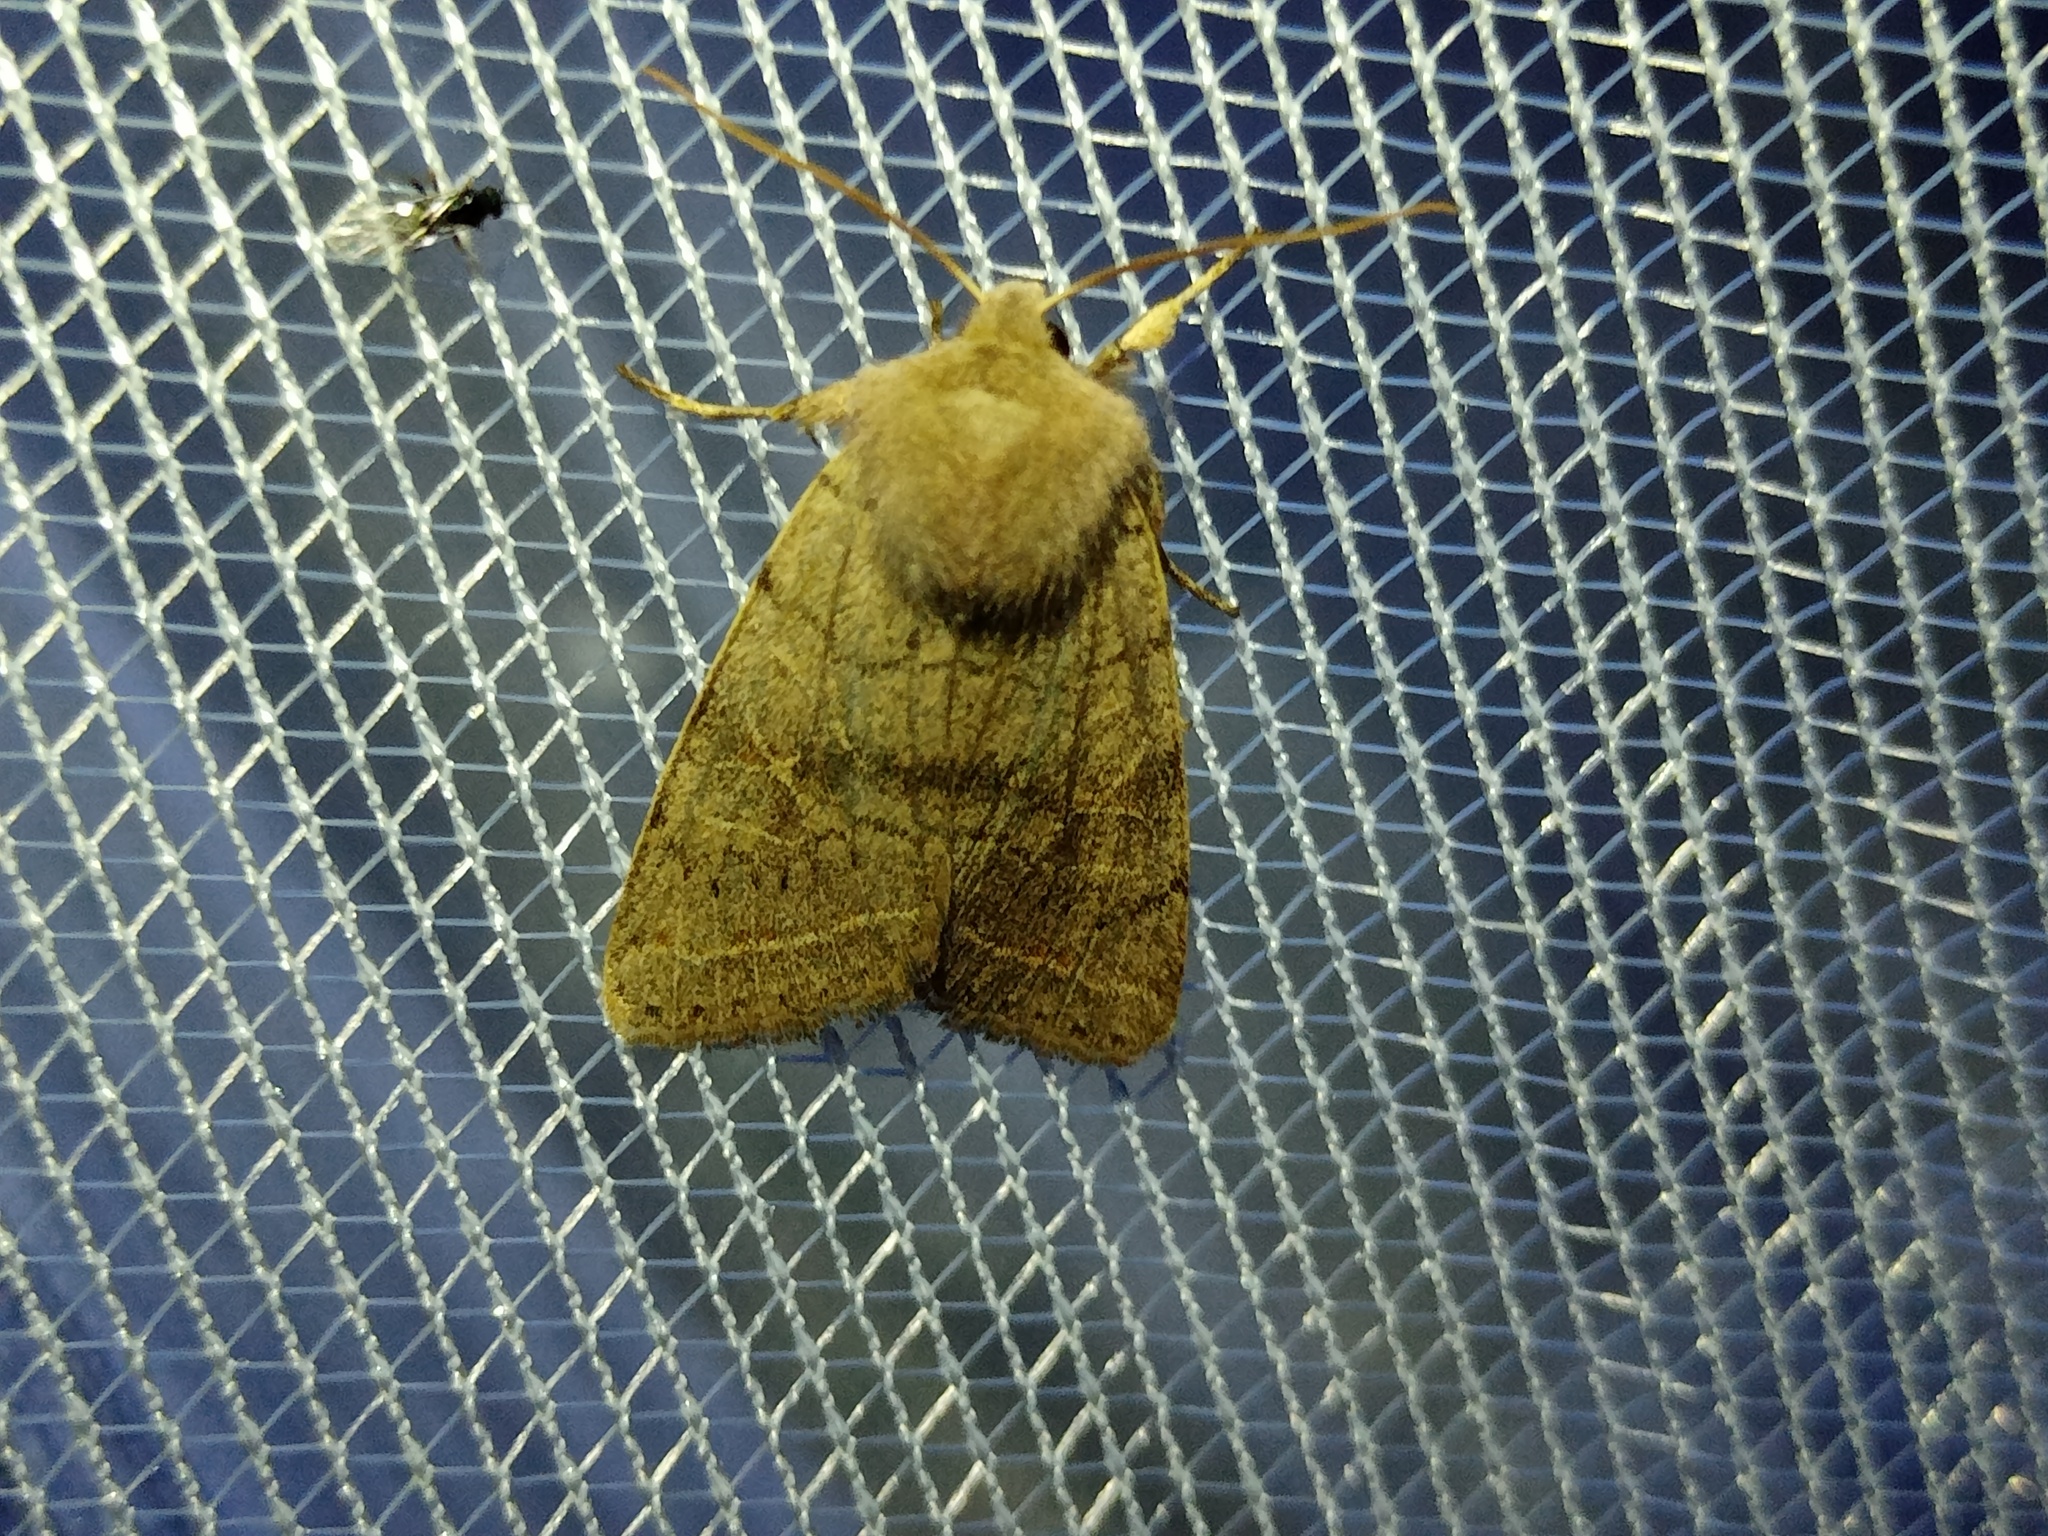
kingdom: Animalia
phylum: Arthropoda
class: Insecta
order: Lepidoptera
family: Noctuidae
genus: Orthosia
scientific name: Orthosia cerasi
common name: Common quaker
